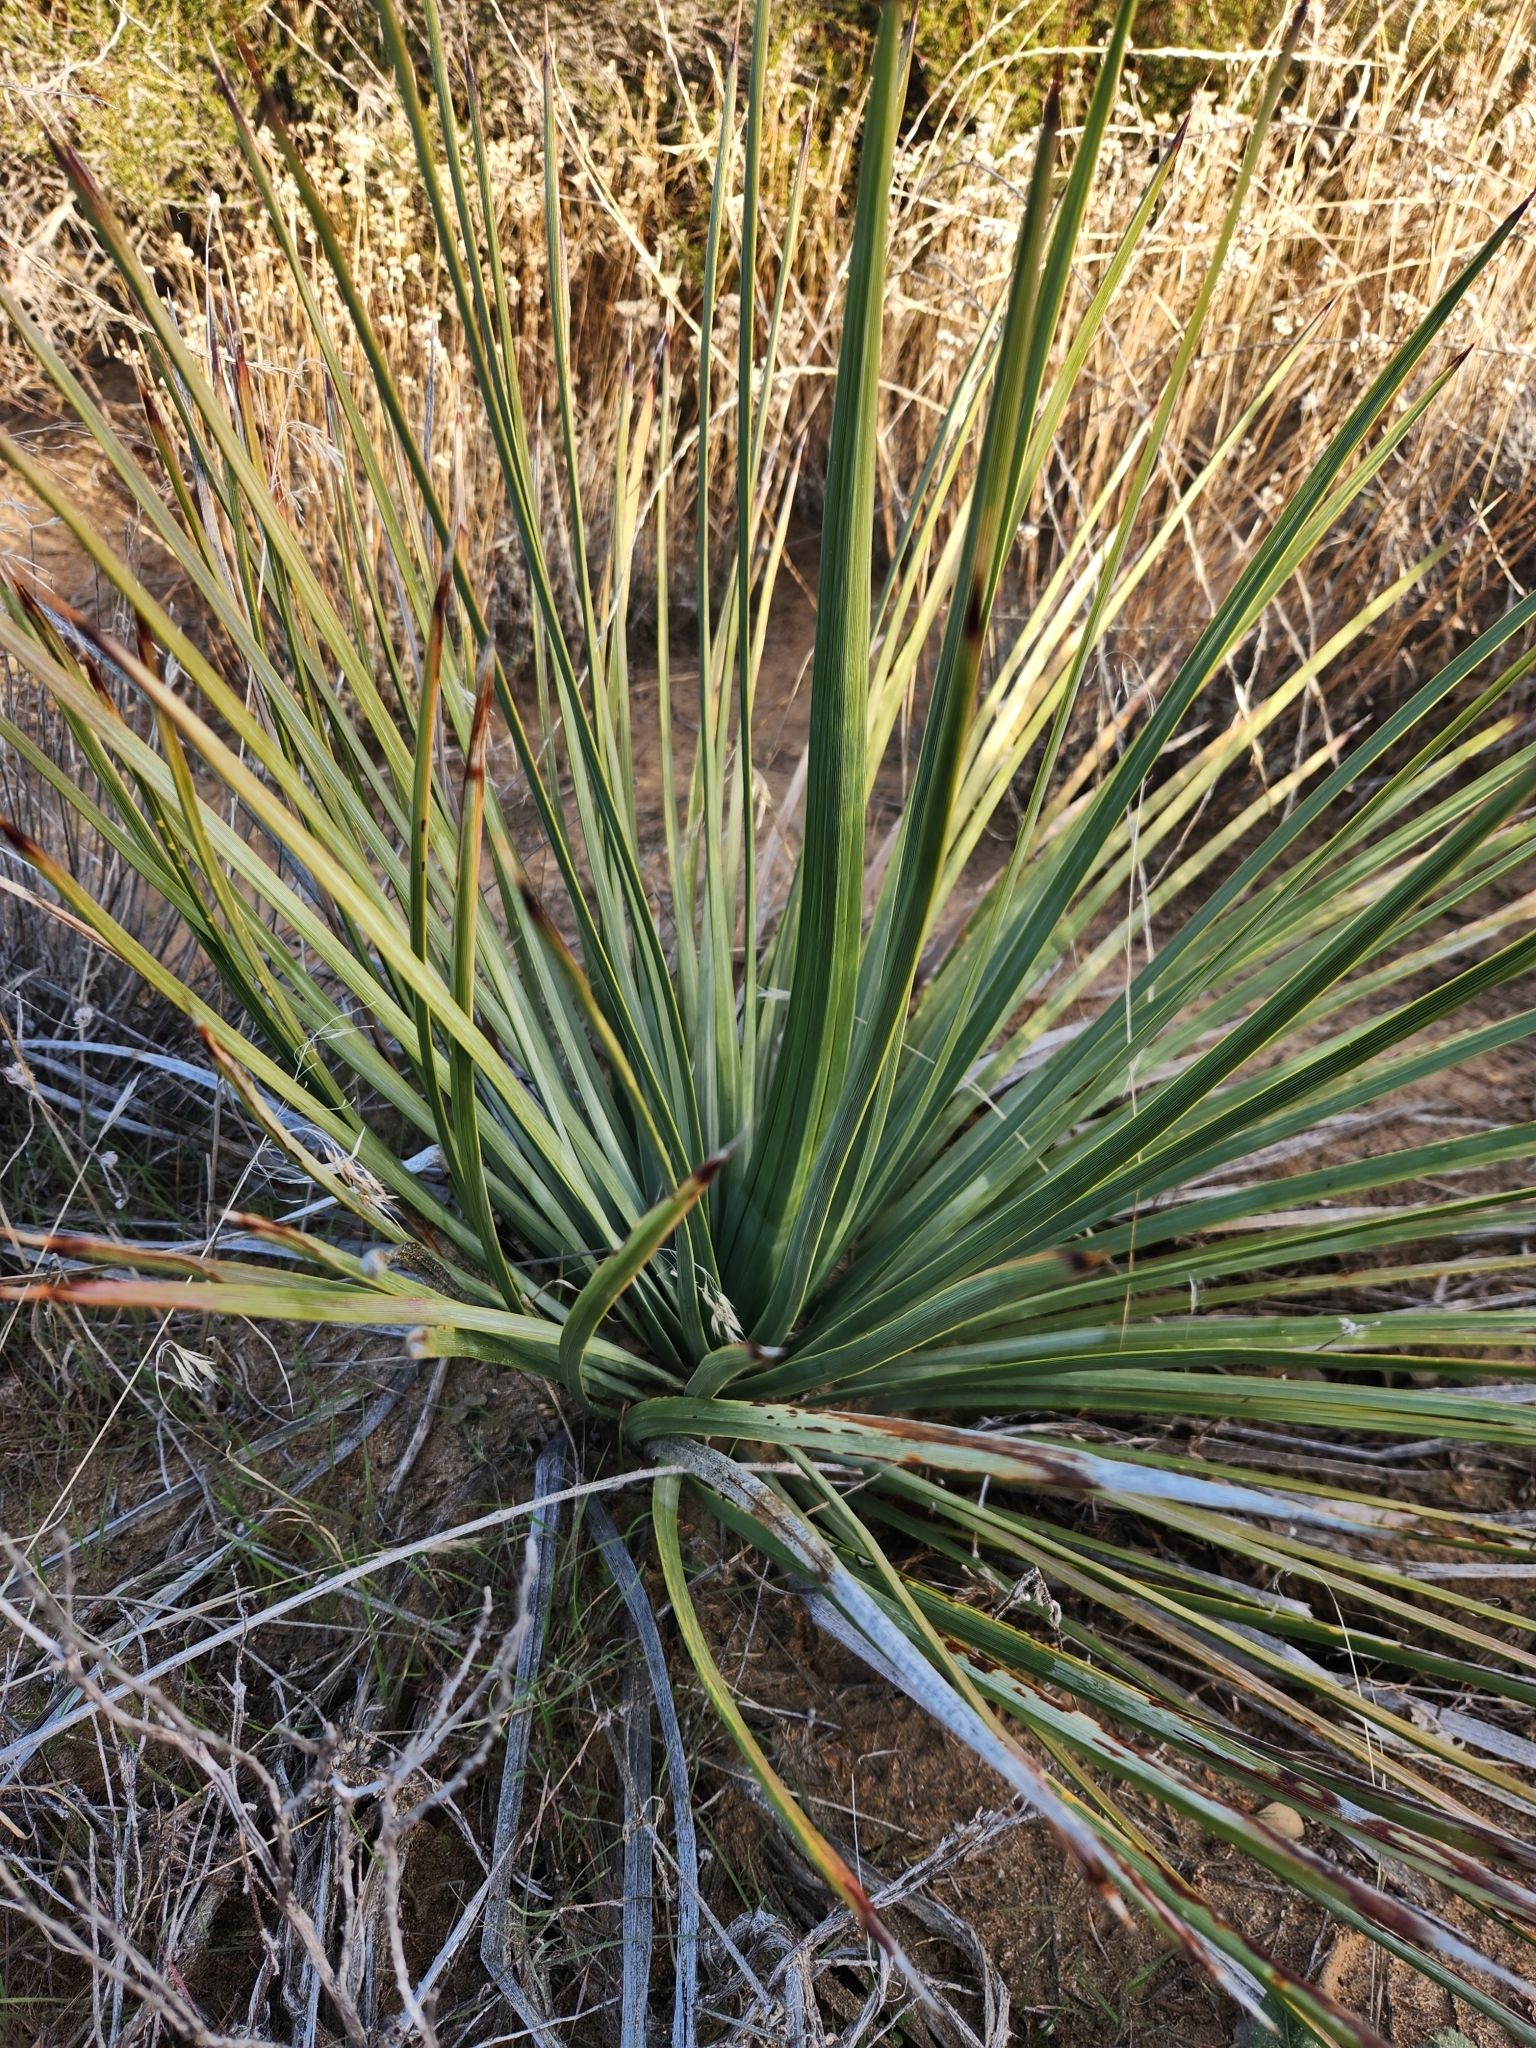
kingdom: Plantae
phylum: Tracheophyta
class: Liliopsida
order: Asparagales
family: Asparagaceae
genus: Hesperoyucca
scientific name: Hesperoyucca whipplei
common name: Our lord's-candle
